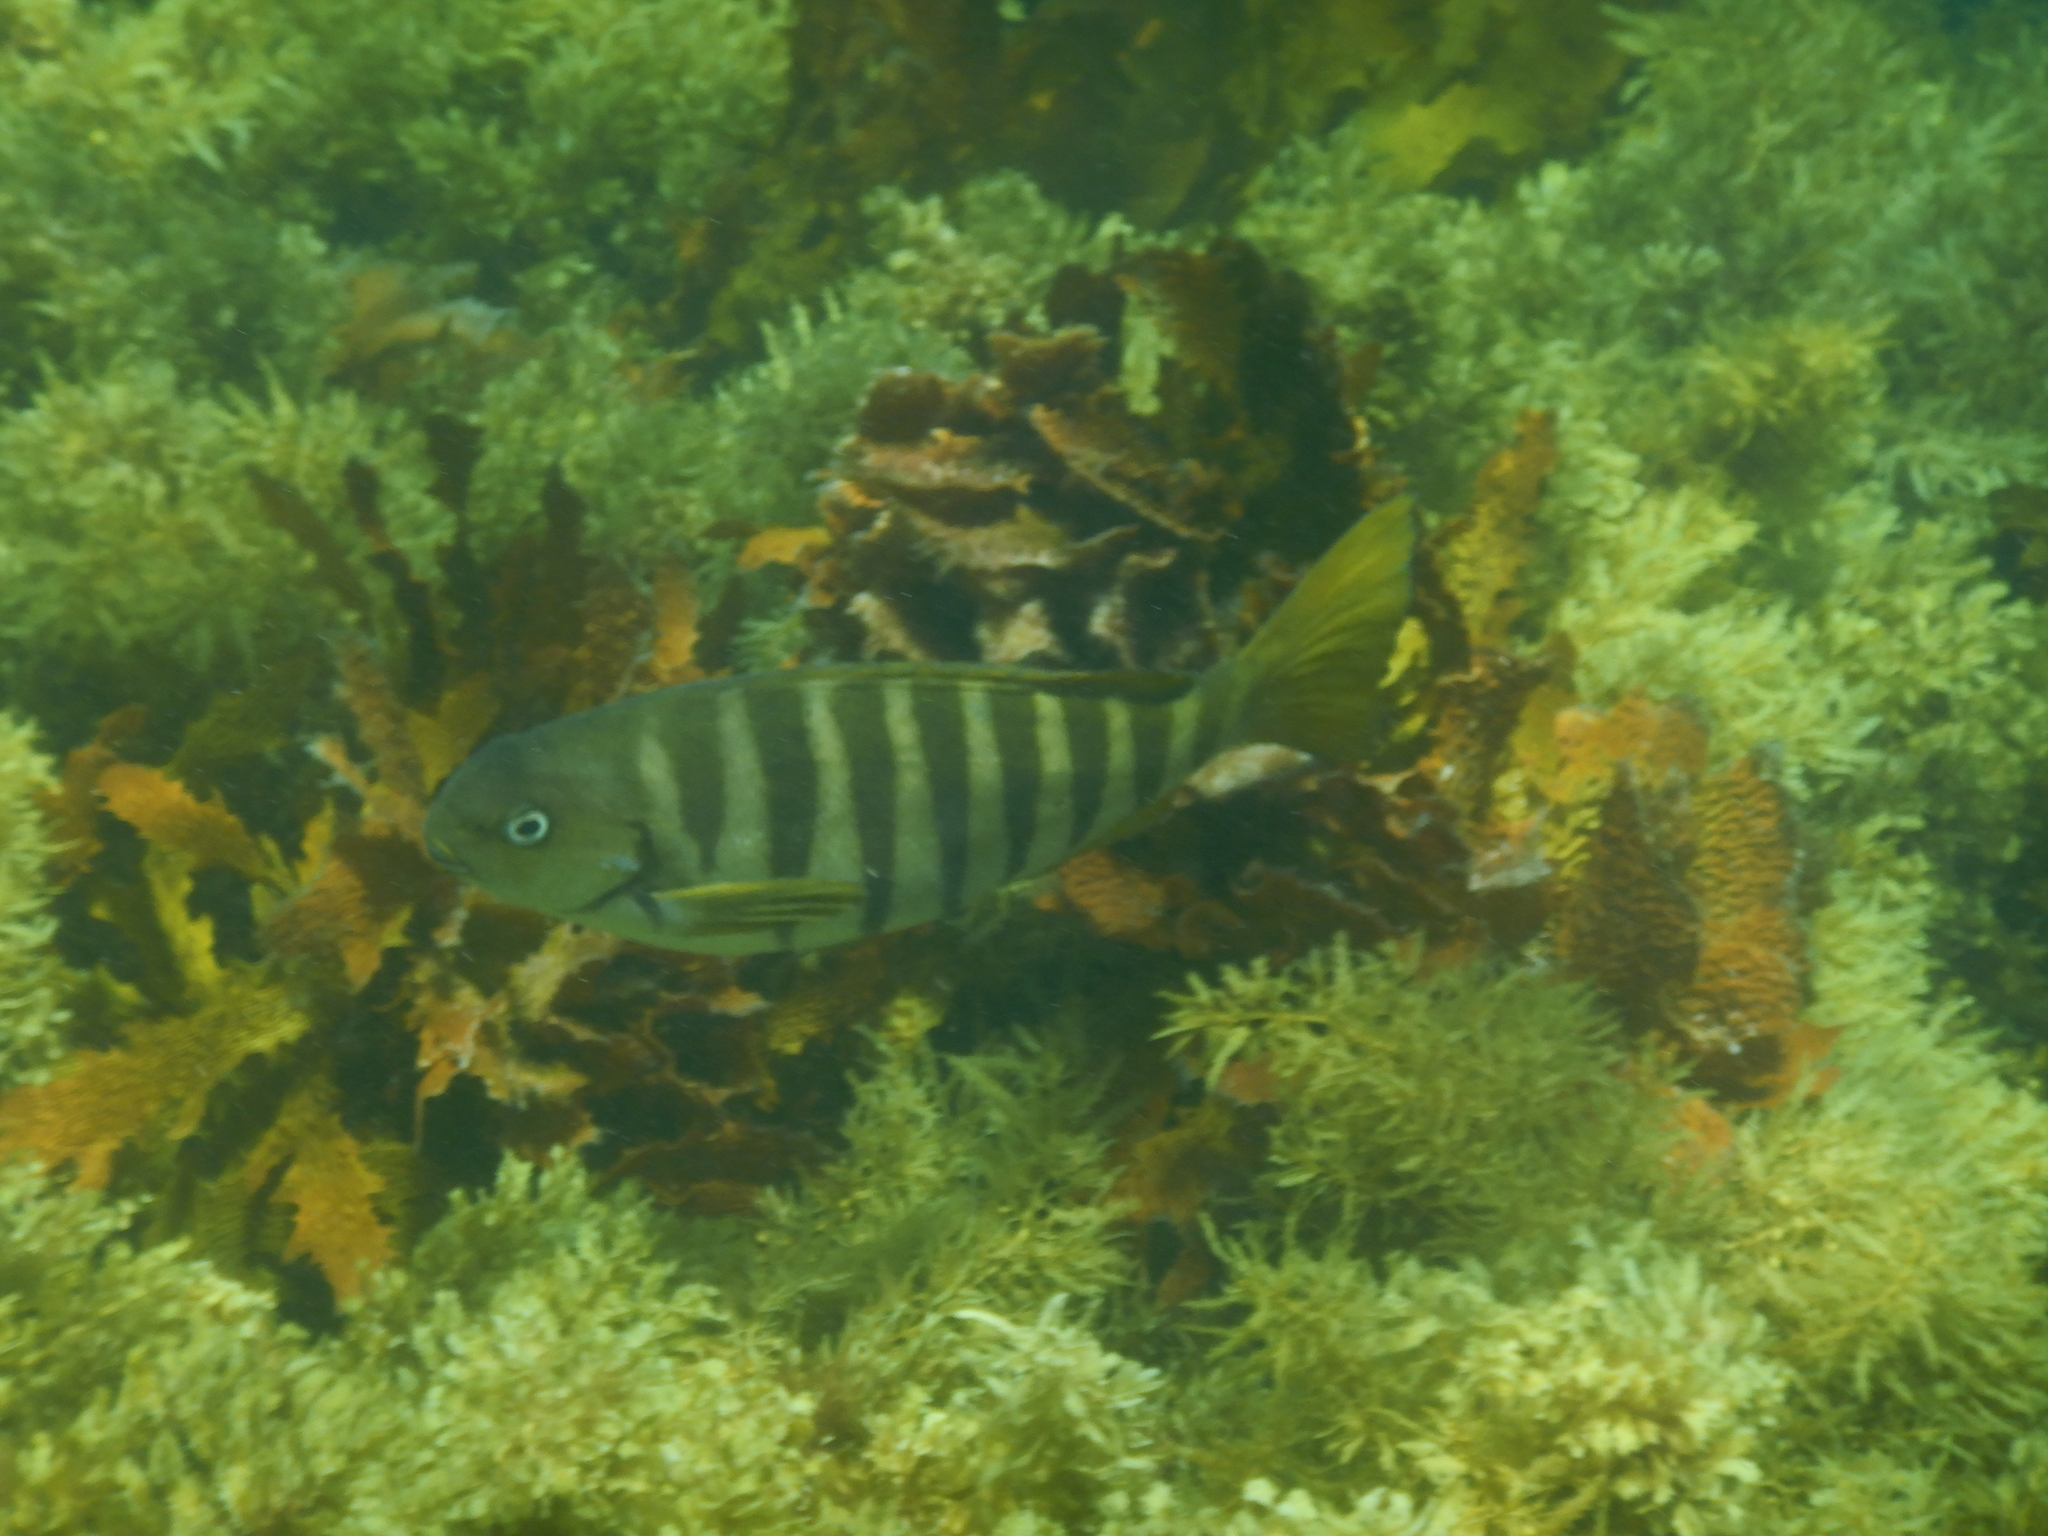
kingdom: Animalia
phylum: Chordata
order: Perciformes
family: Kyphosidae
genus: Girella
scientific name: Girella zebra
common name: Stripey bream
